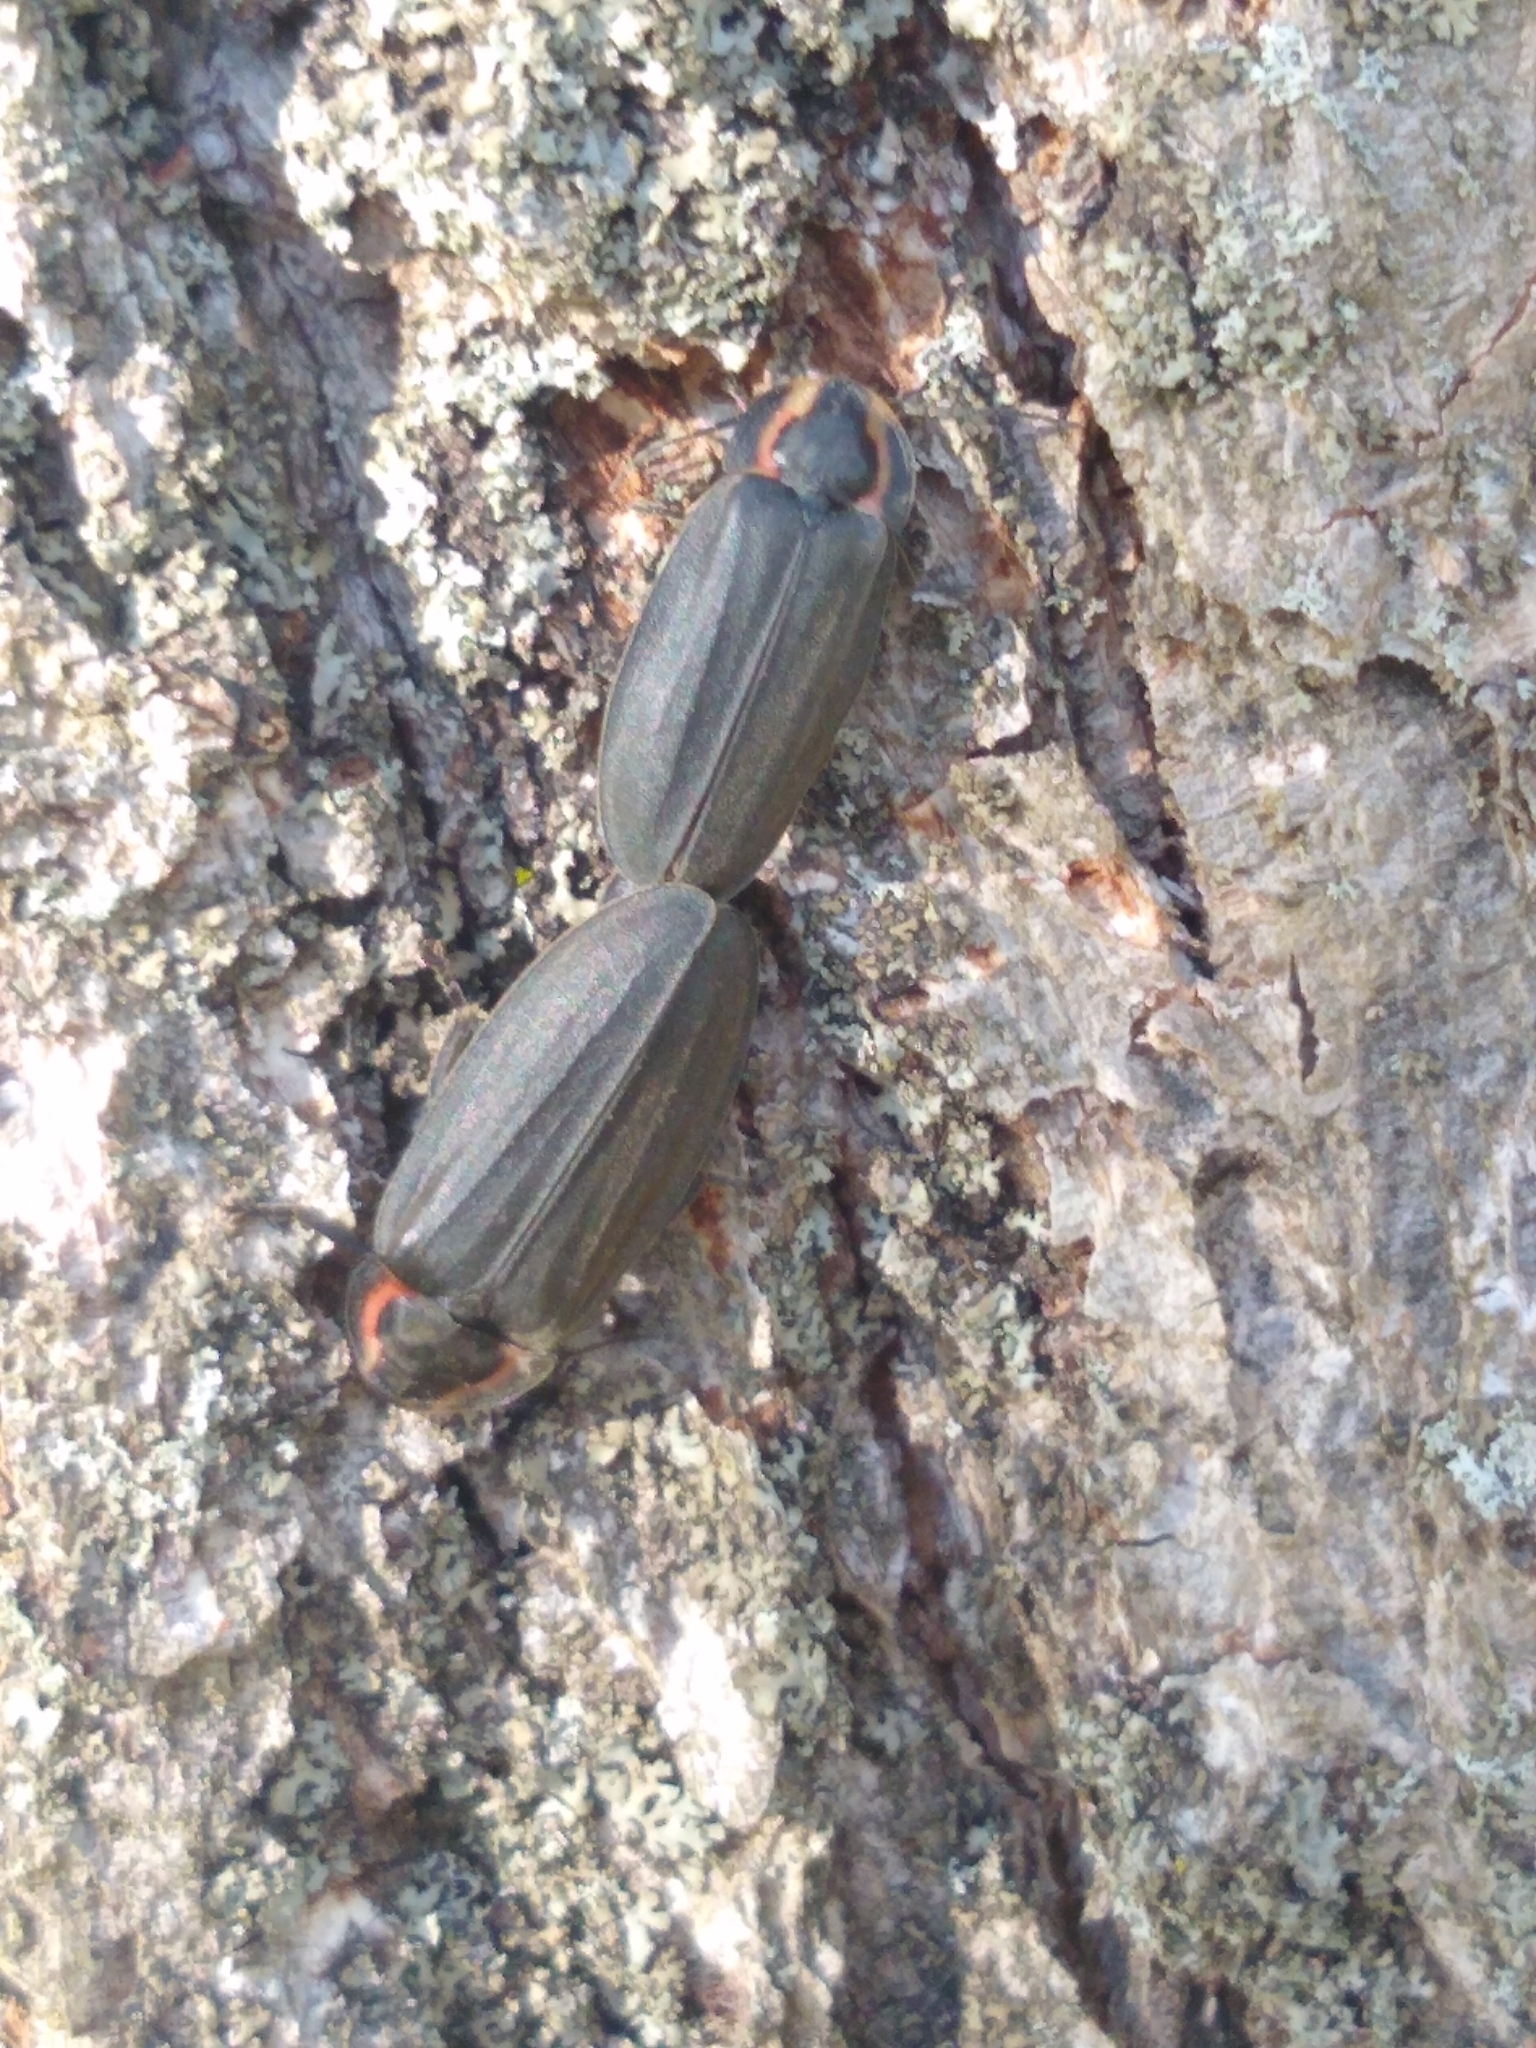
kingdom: Animalia
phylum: Arthropoda
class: Insecta
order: Coleoptera
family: Lampyridae
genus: Photinus
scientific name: Photinus corrusca
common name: Winter firefly
